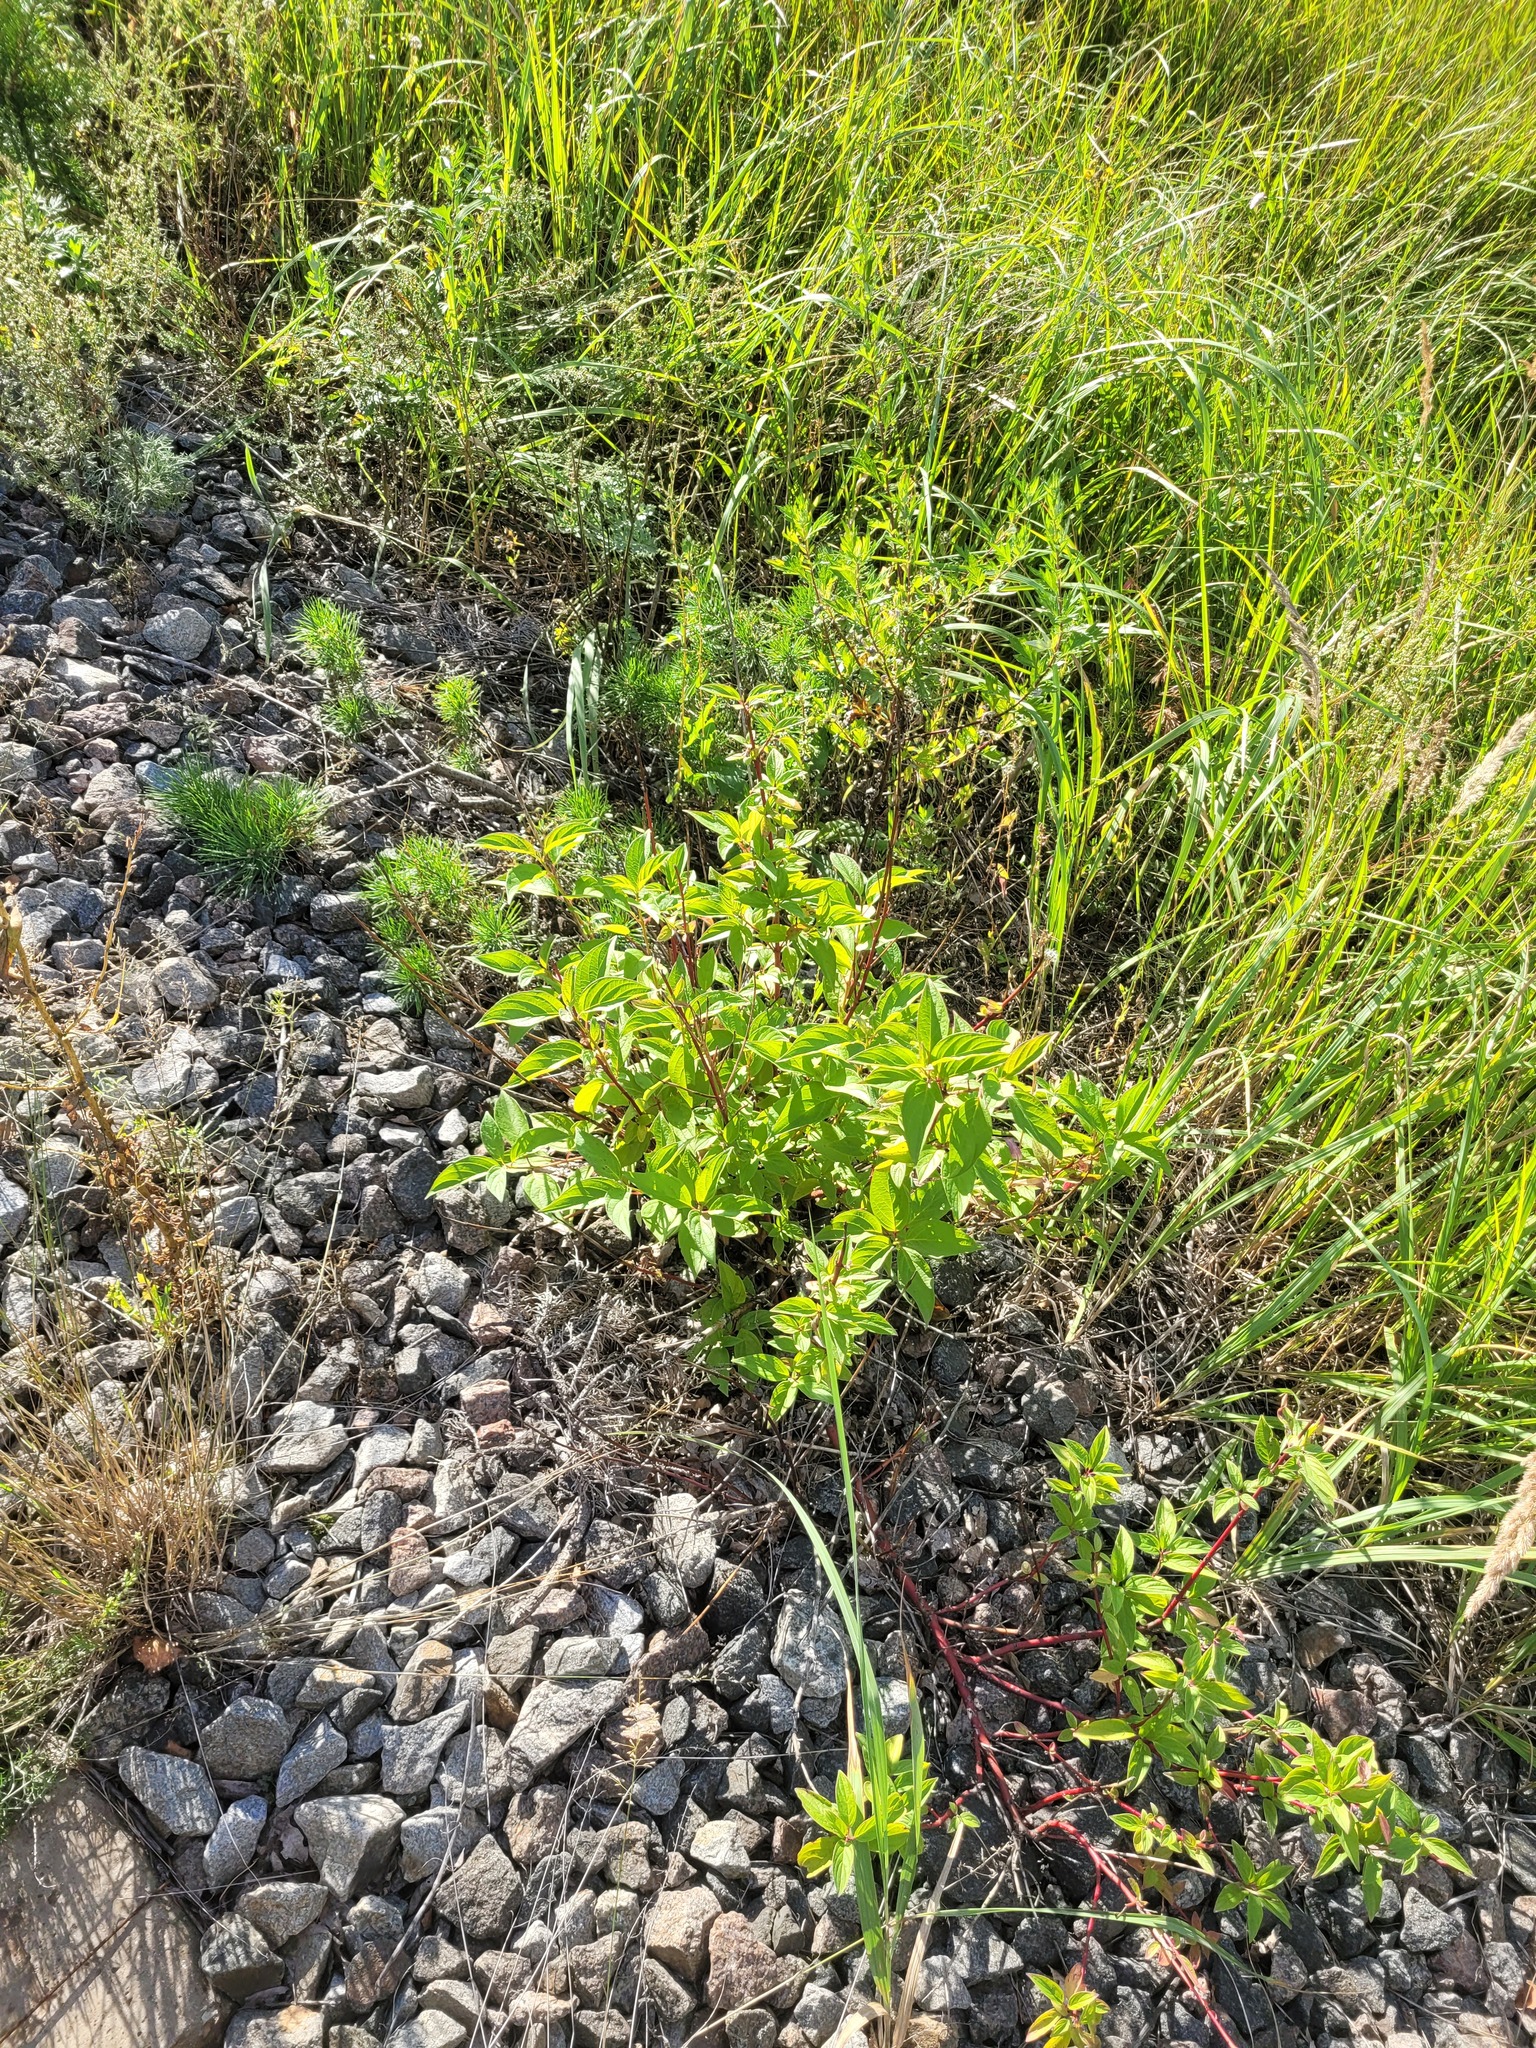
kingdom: Plantae
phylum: Tracheophyta
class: Magnoliopsida
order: Cornales
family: Cornaceae
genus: Cornus
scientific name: Cornus alba
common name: White dogwood
